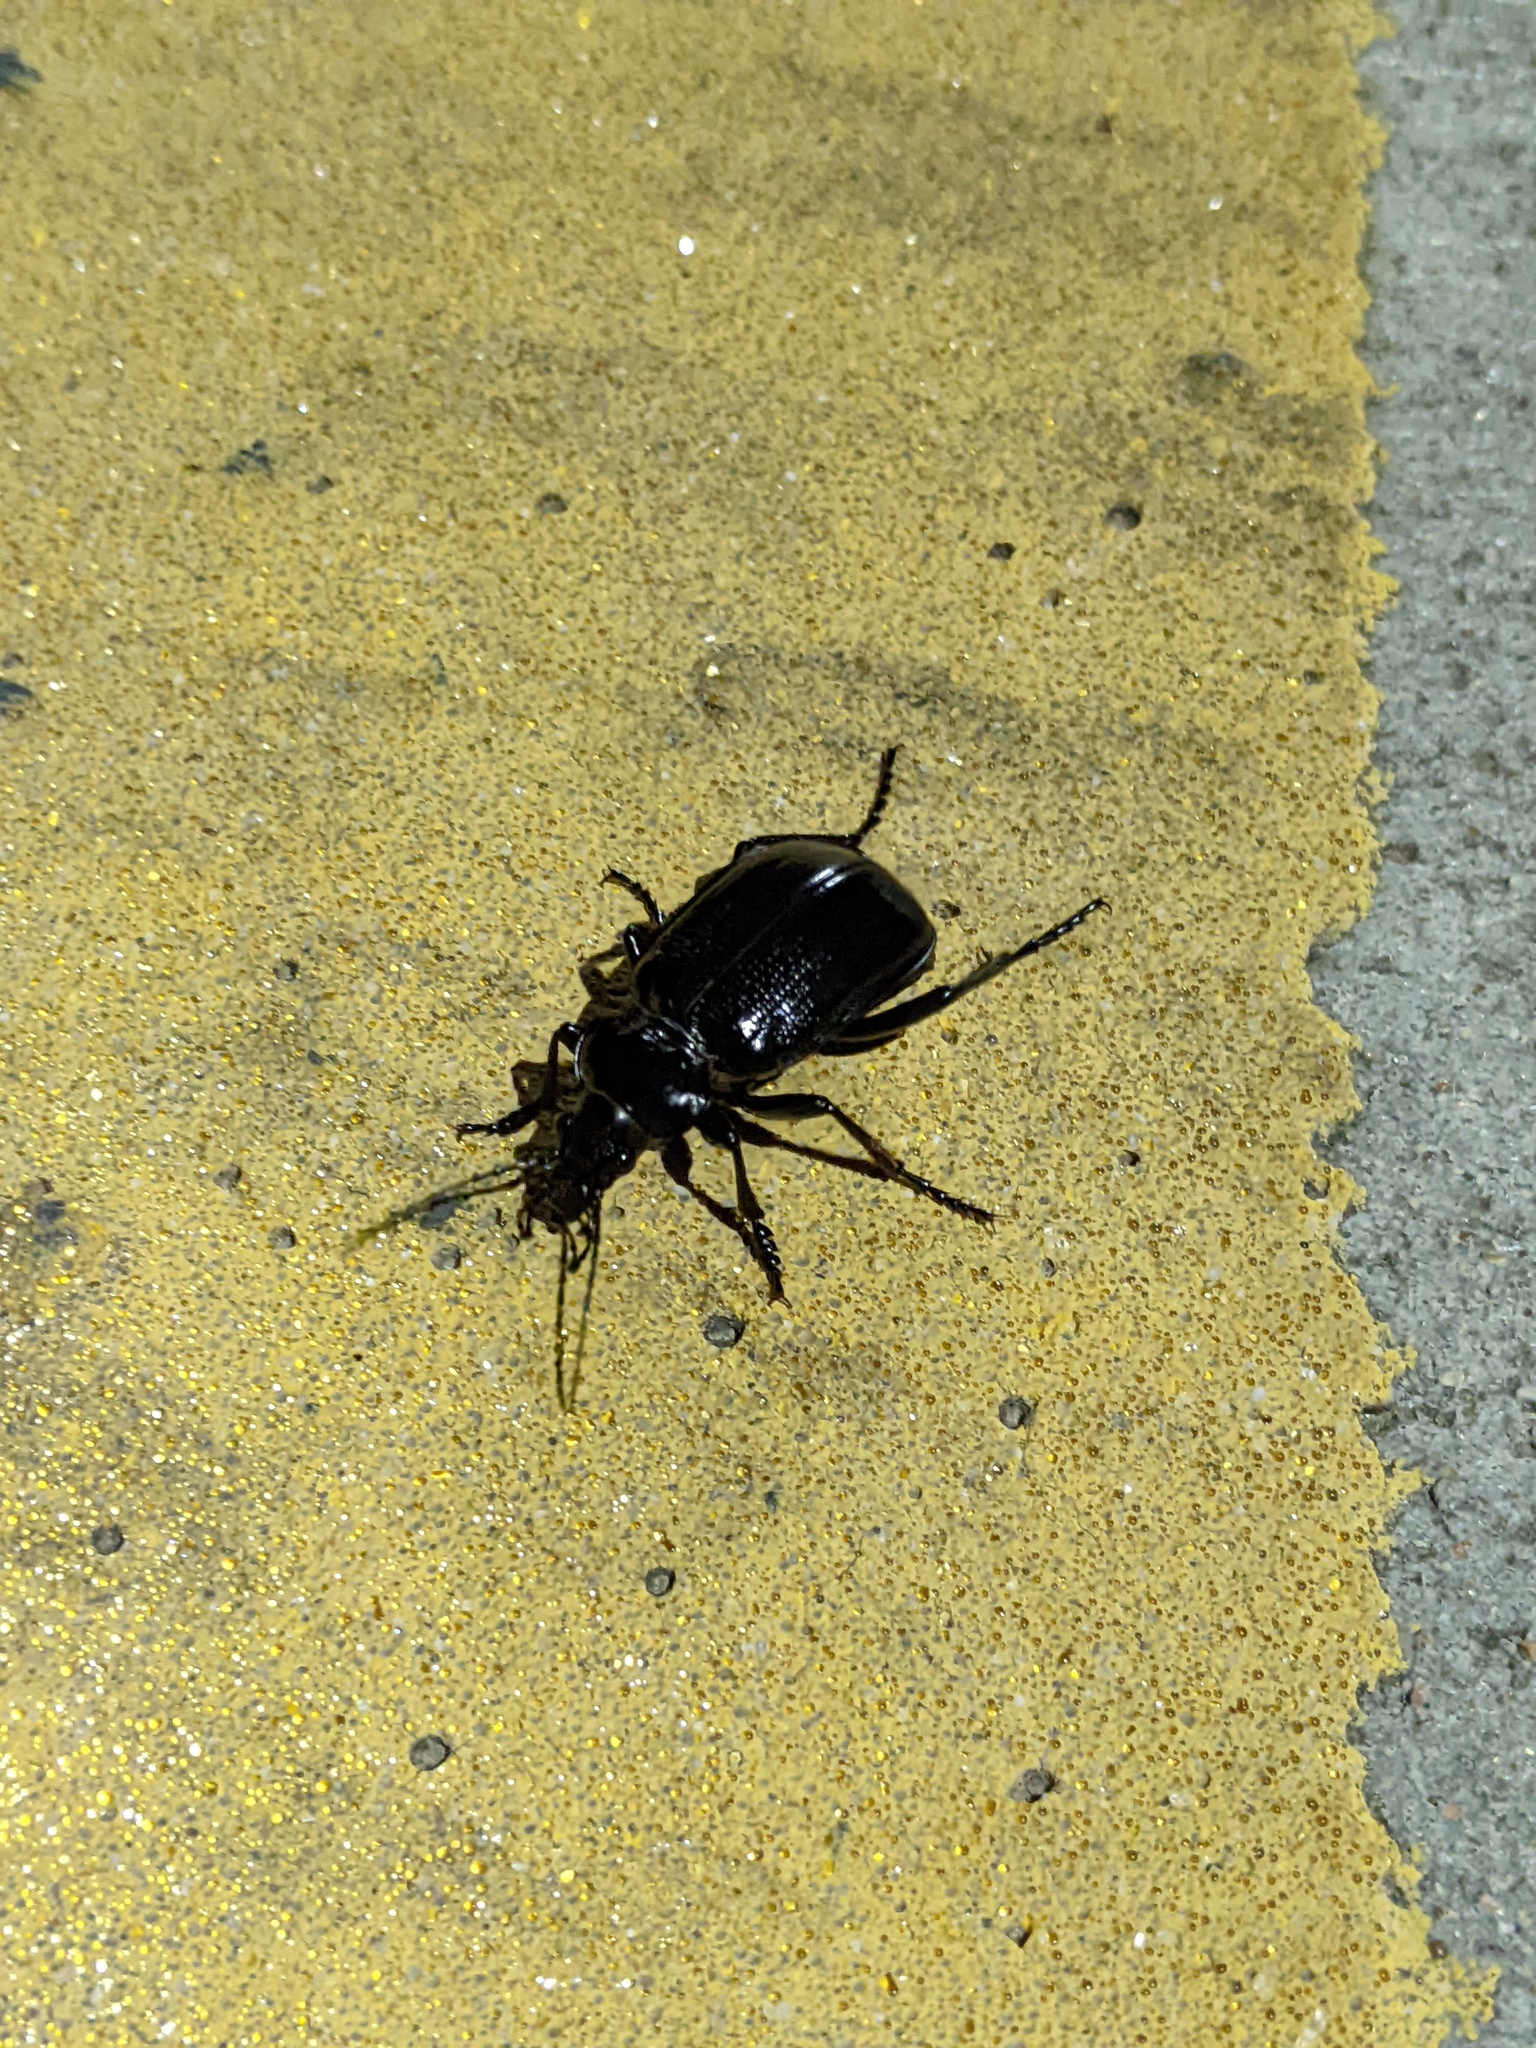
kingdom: Animalia
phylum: Arthropoda
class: Insecta
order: Coleoptera
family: Carabidae
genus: Calosoma
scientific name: Calosoma marginale
